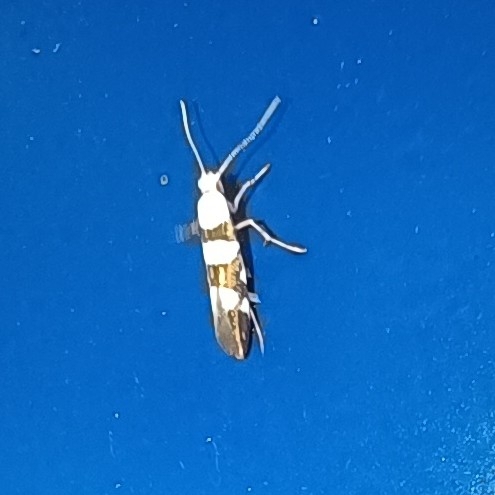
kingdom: Animalia
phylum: Arthropoda
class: Insecta
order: Lepidoptera
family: Argyresthiidae
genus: Argyresthia
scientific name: Argyresthia brockeella
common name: Gold-ribbon argent
